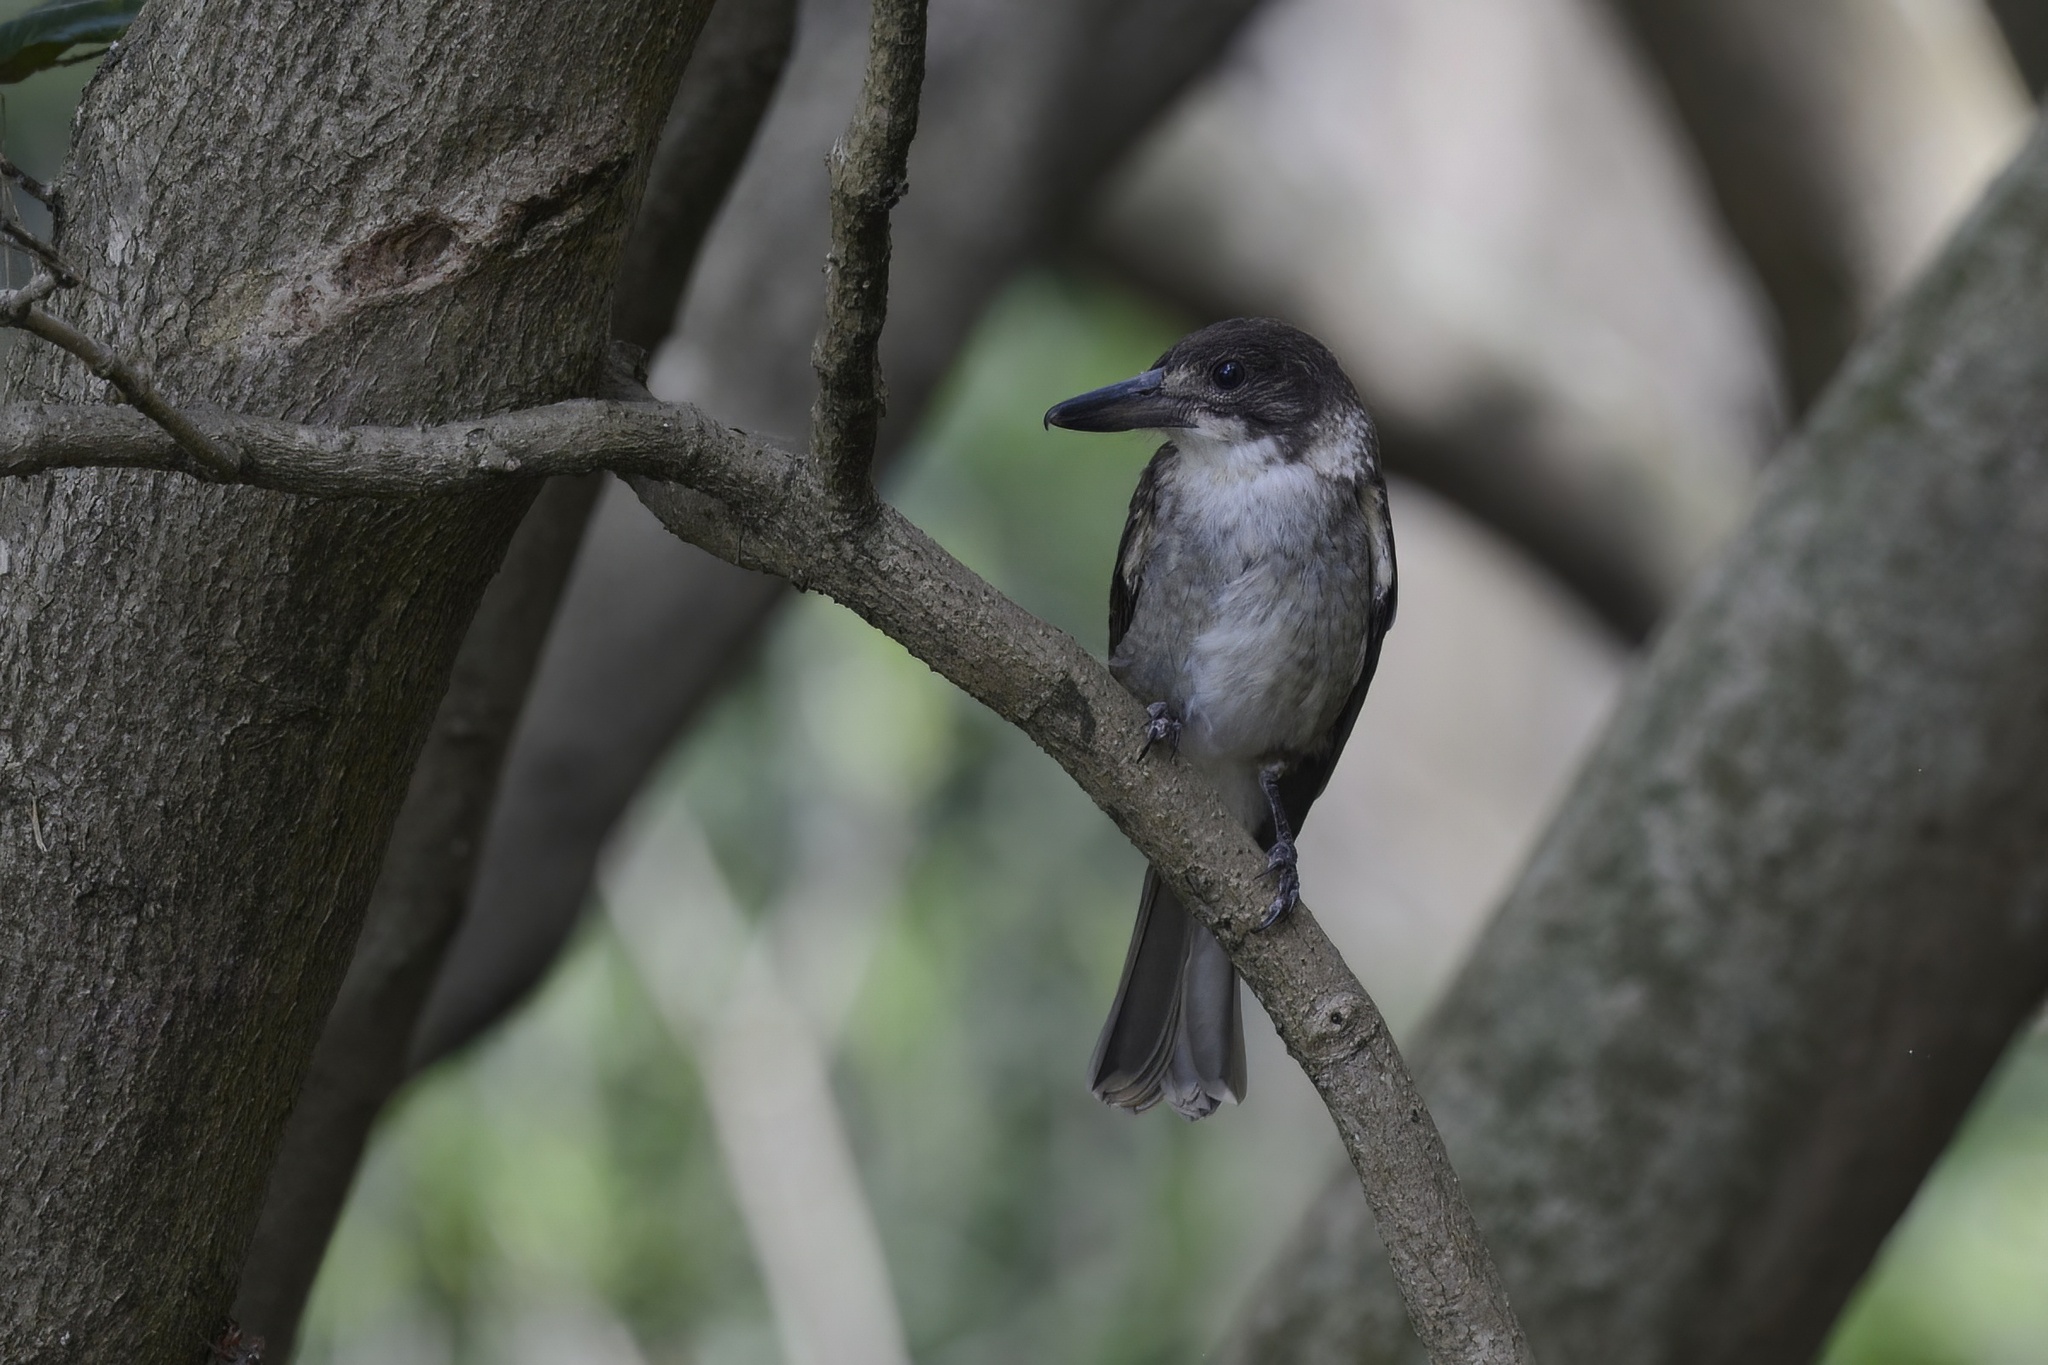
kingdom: Animalia
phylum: Chordata
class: Aves
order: Passeriformes
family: Cracticidae
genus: Cracticus
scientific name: Cracticus torquatus
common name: Grey butcherbird
